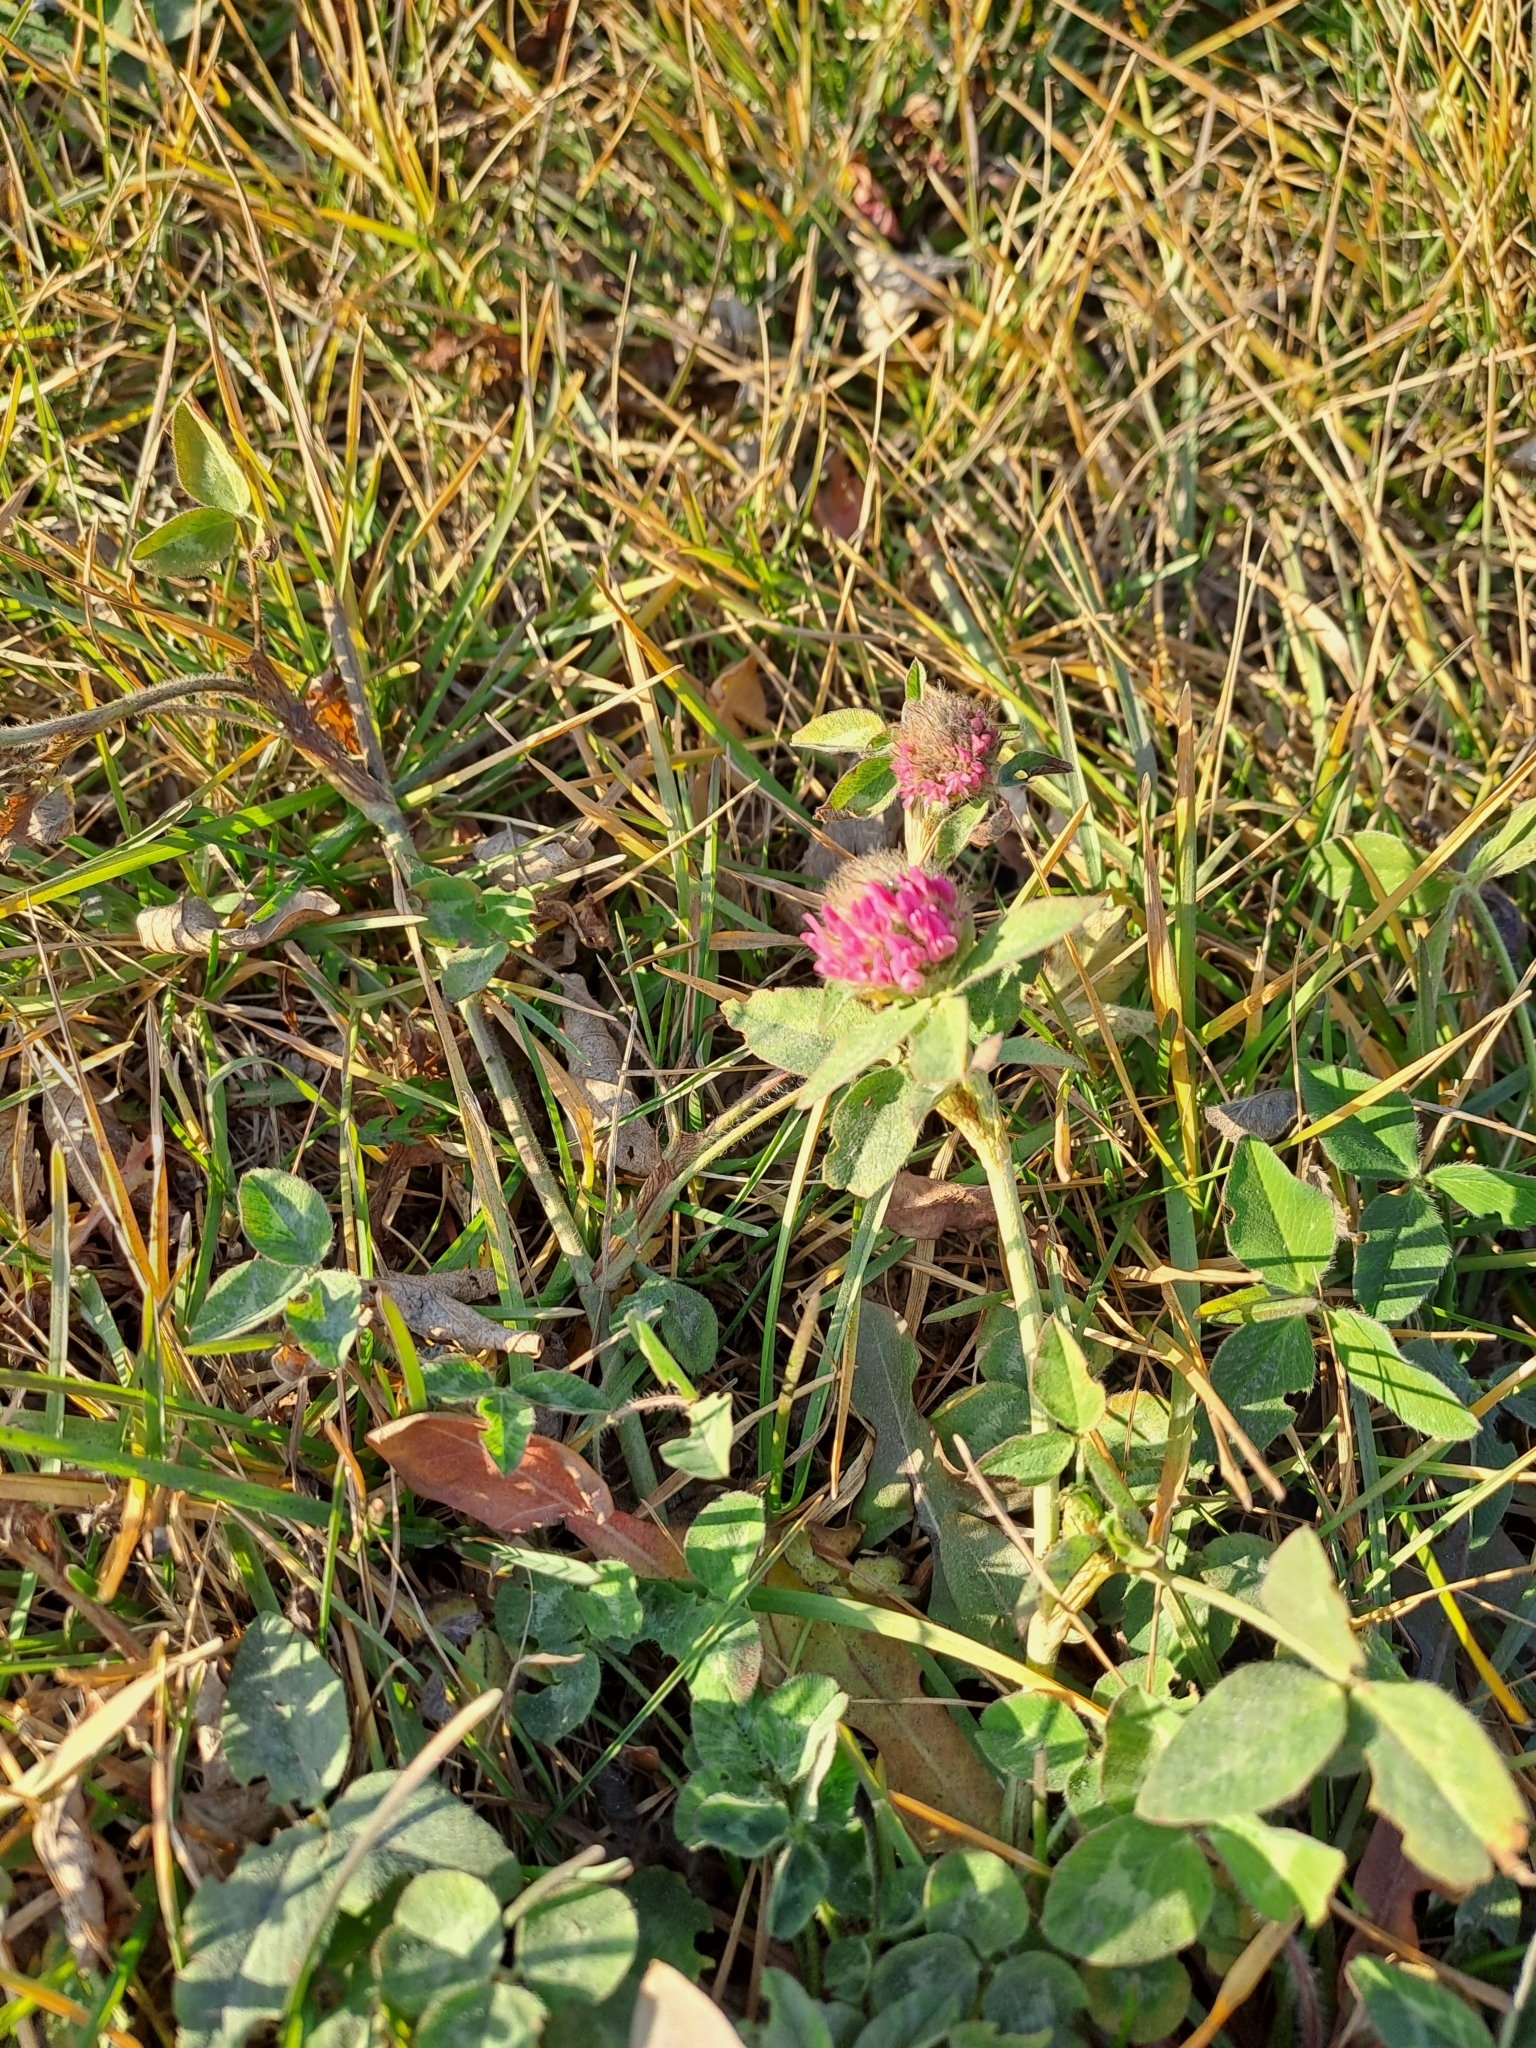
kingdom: Plantae
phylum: Tracheophyta
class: Magnoliopsida
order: Fabales
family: Fabaceae
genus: Trifolium
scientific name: Trifolium pratense
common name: Red clover
